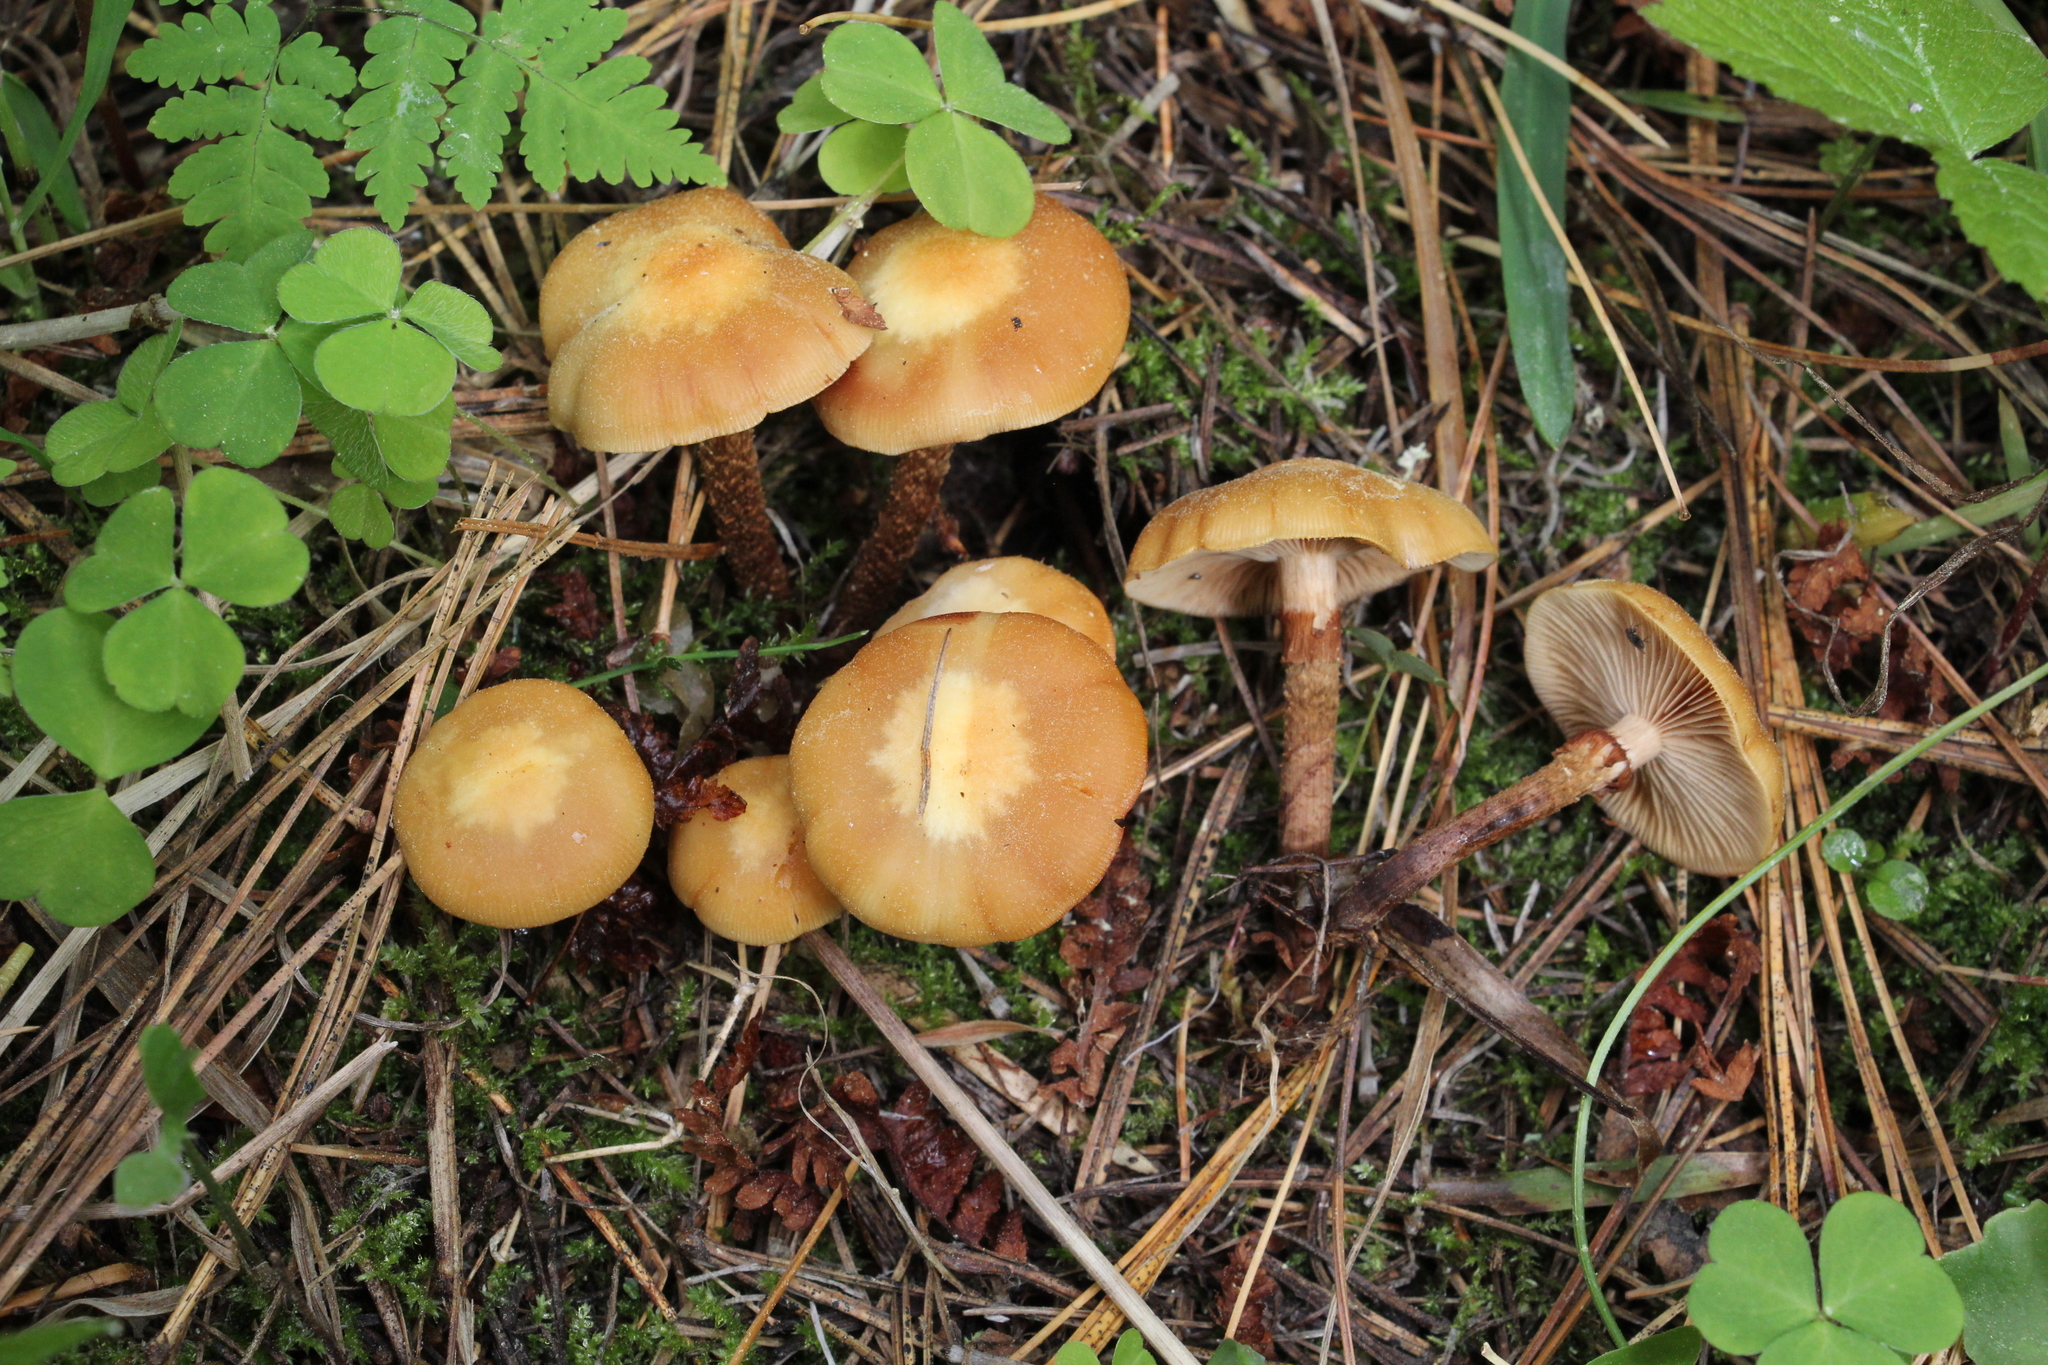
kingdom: Fungi
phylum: Basidiomycota
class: Agaricomycetes
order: Agaricales
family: Strophariaceae
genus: Kuehneromyces
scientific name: Kuehneromyces mutabilis
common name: Sheathed woodtuft
